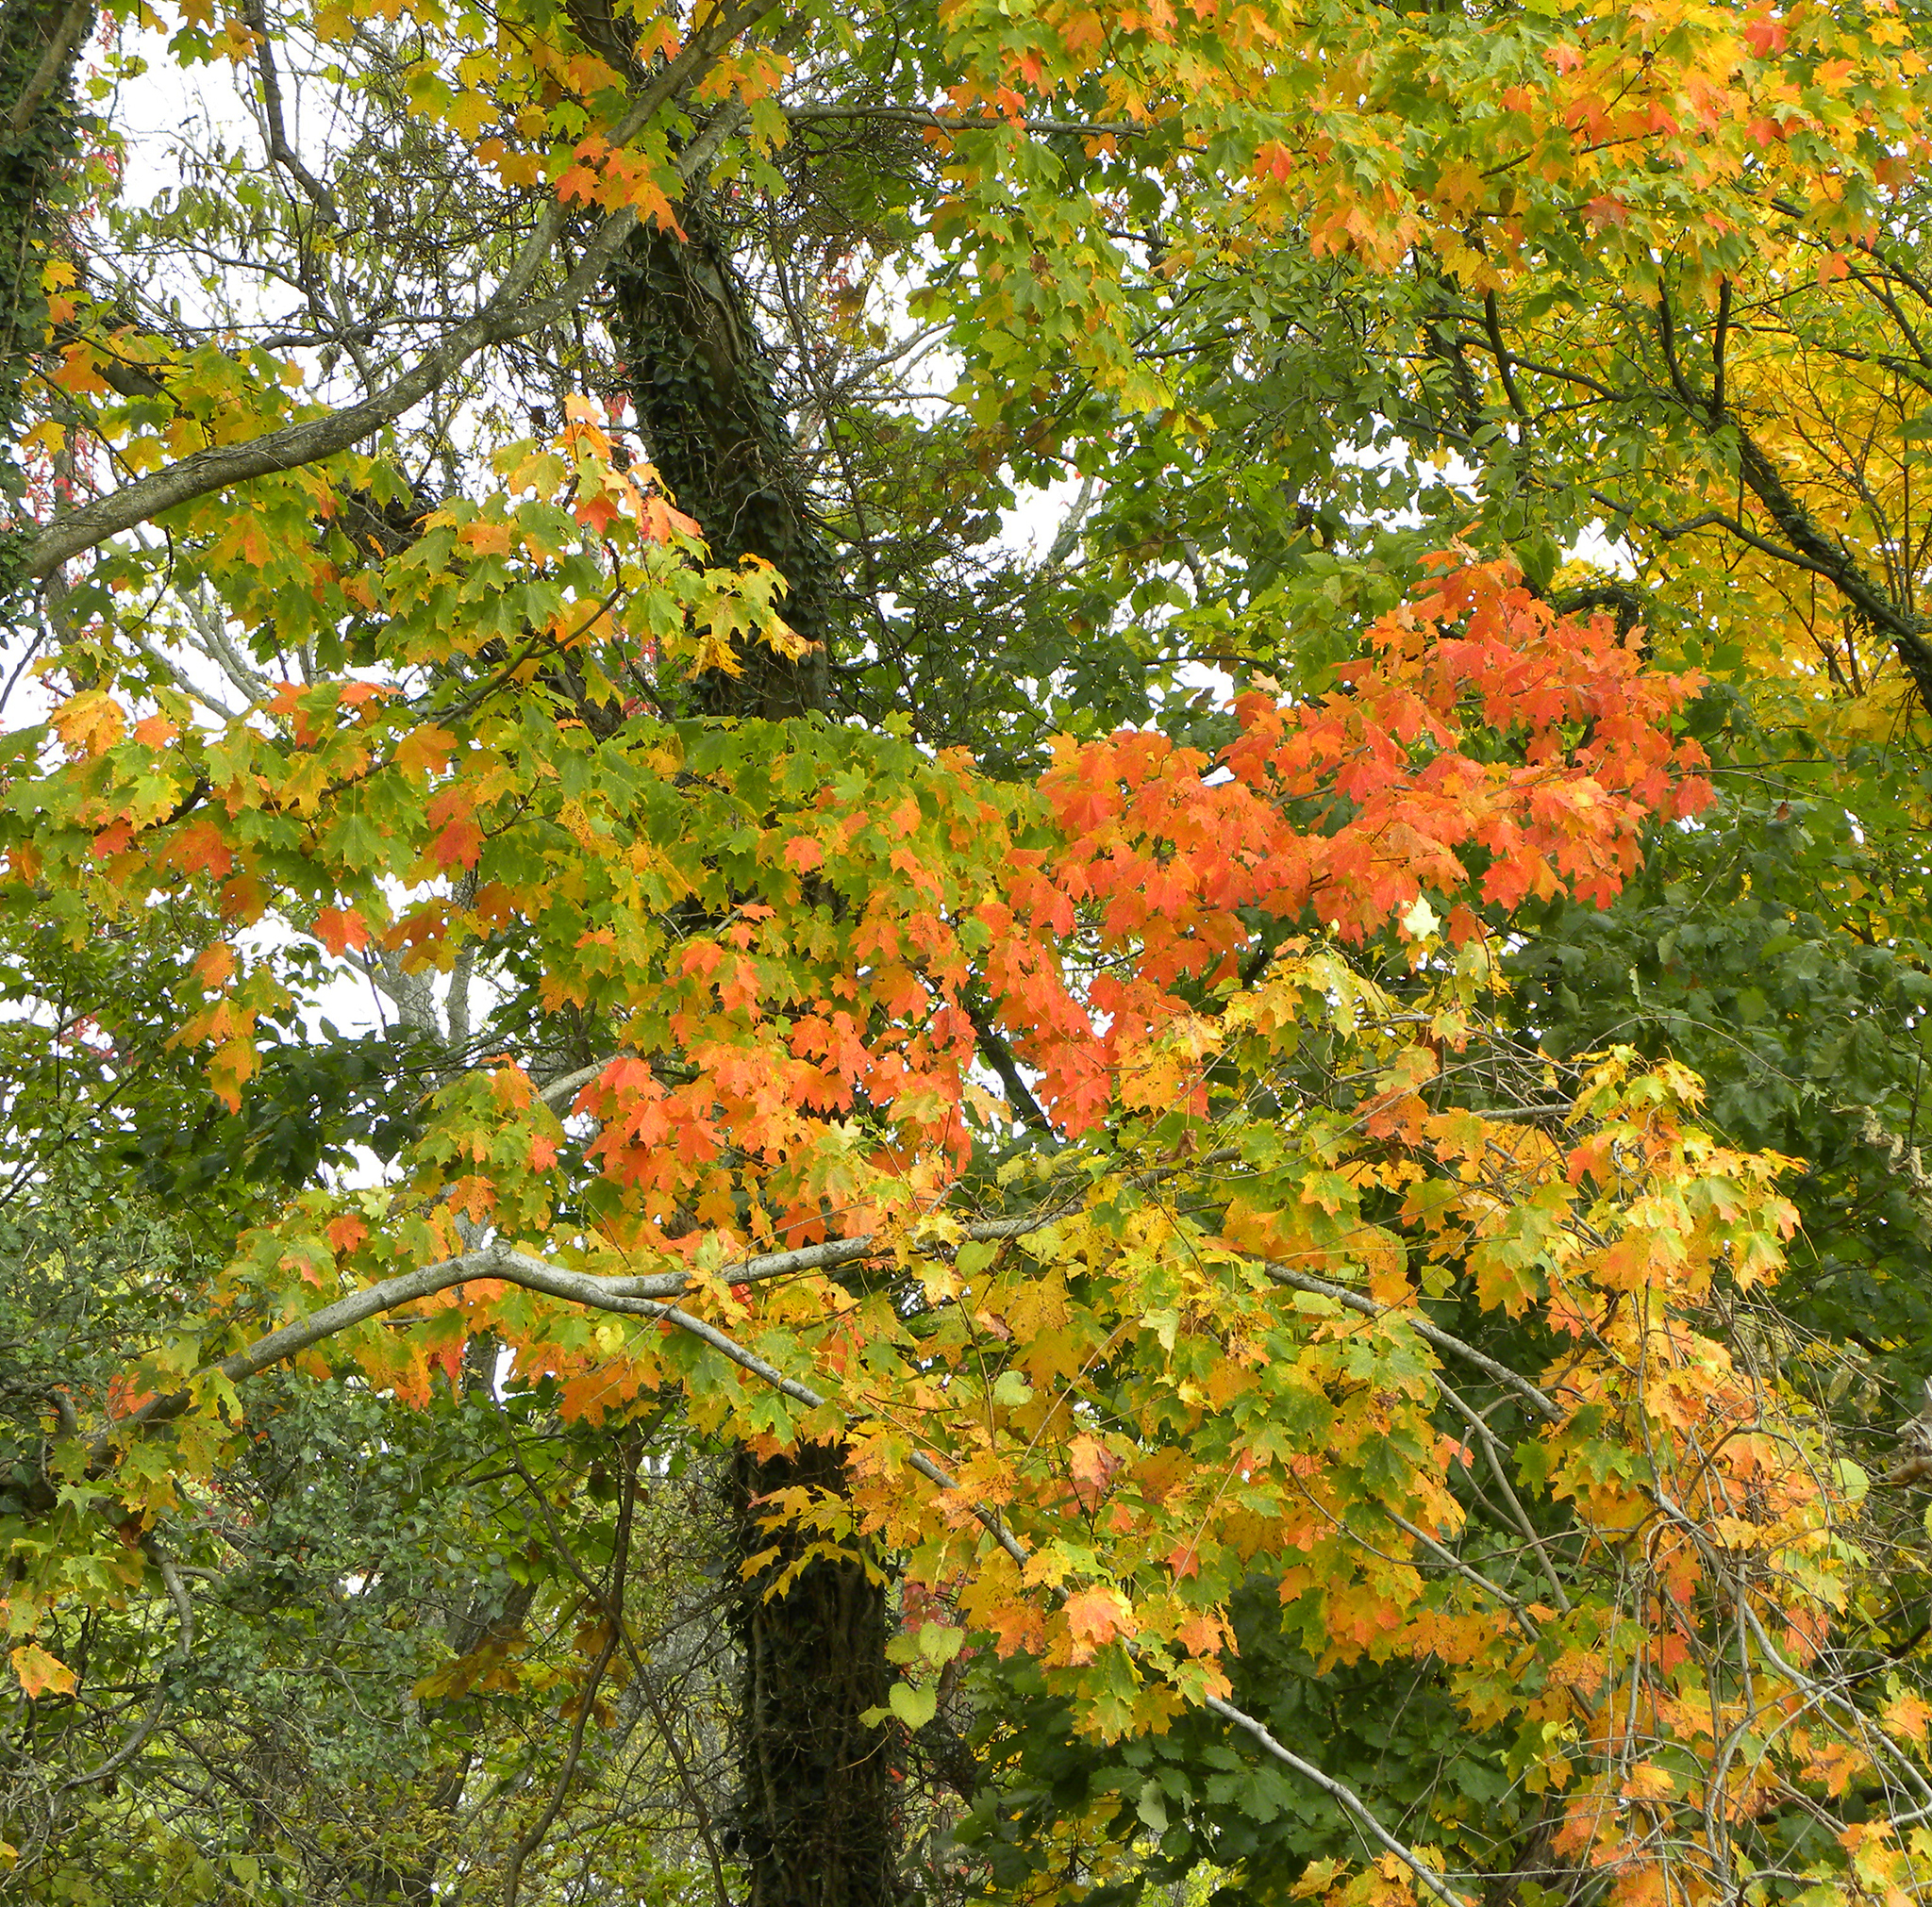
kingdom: Plantae
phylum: Tracheophyta
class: Magnoliopsida
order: Sapindales
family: Sapindaceae
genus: Acer
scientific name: Acer saccharum
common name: Sugar maple
